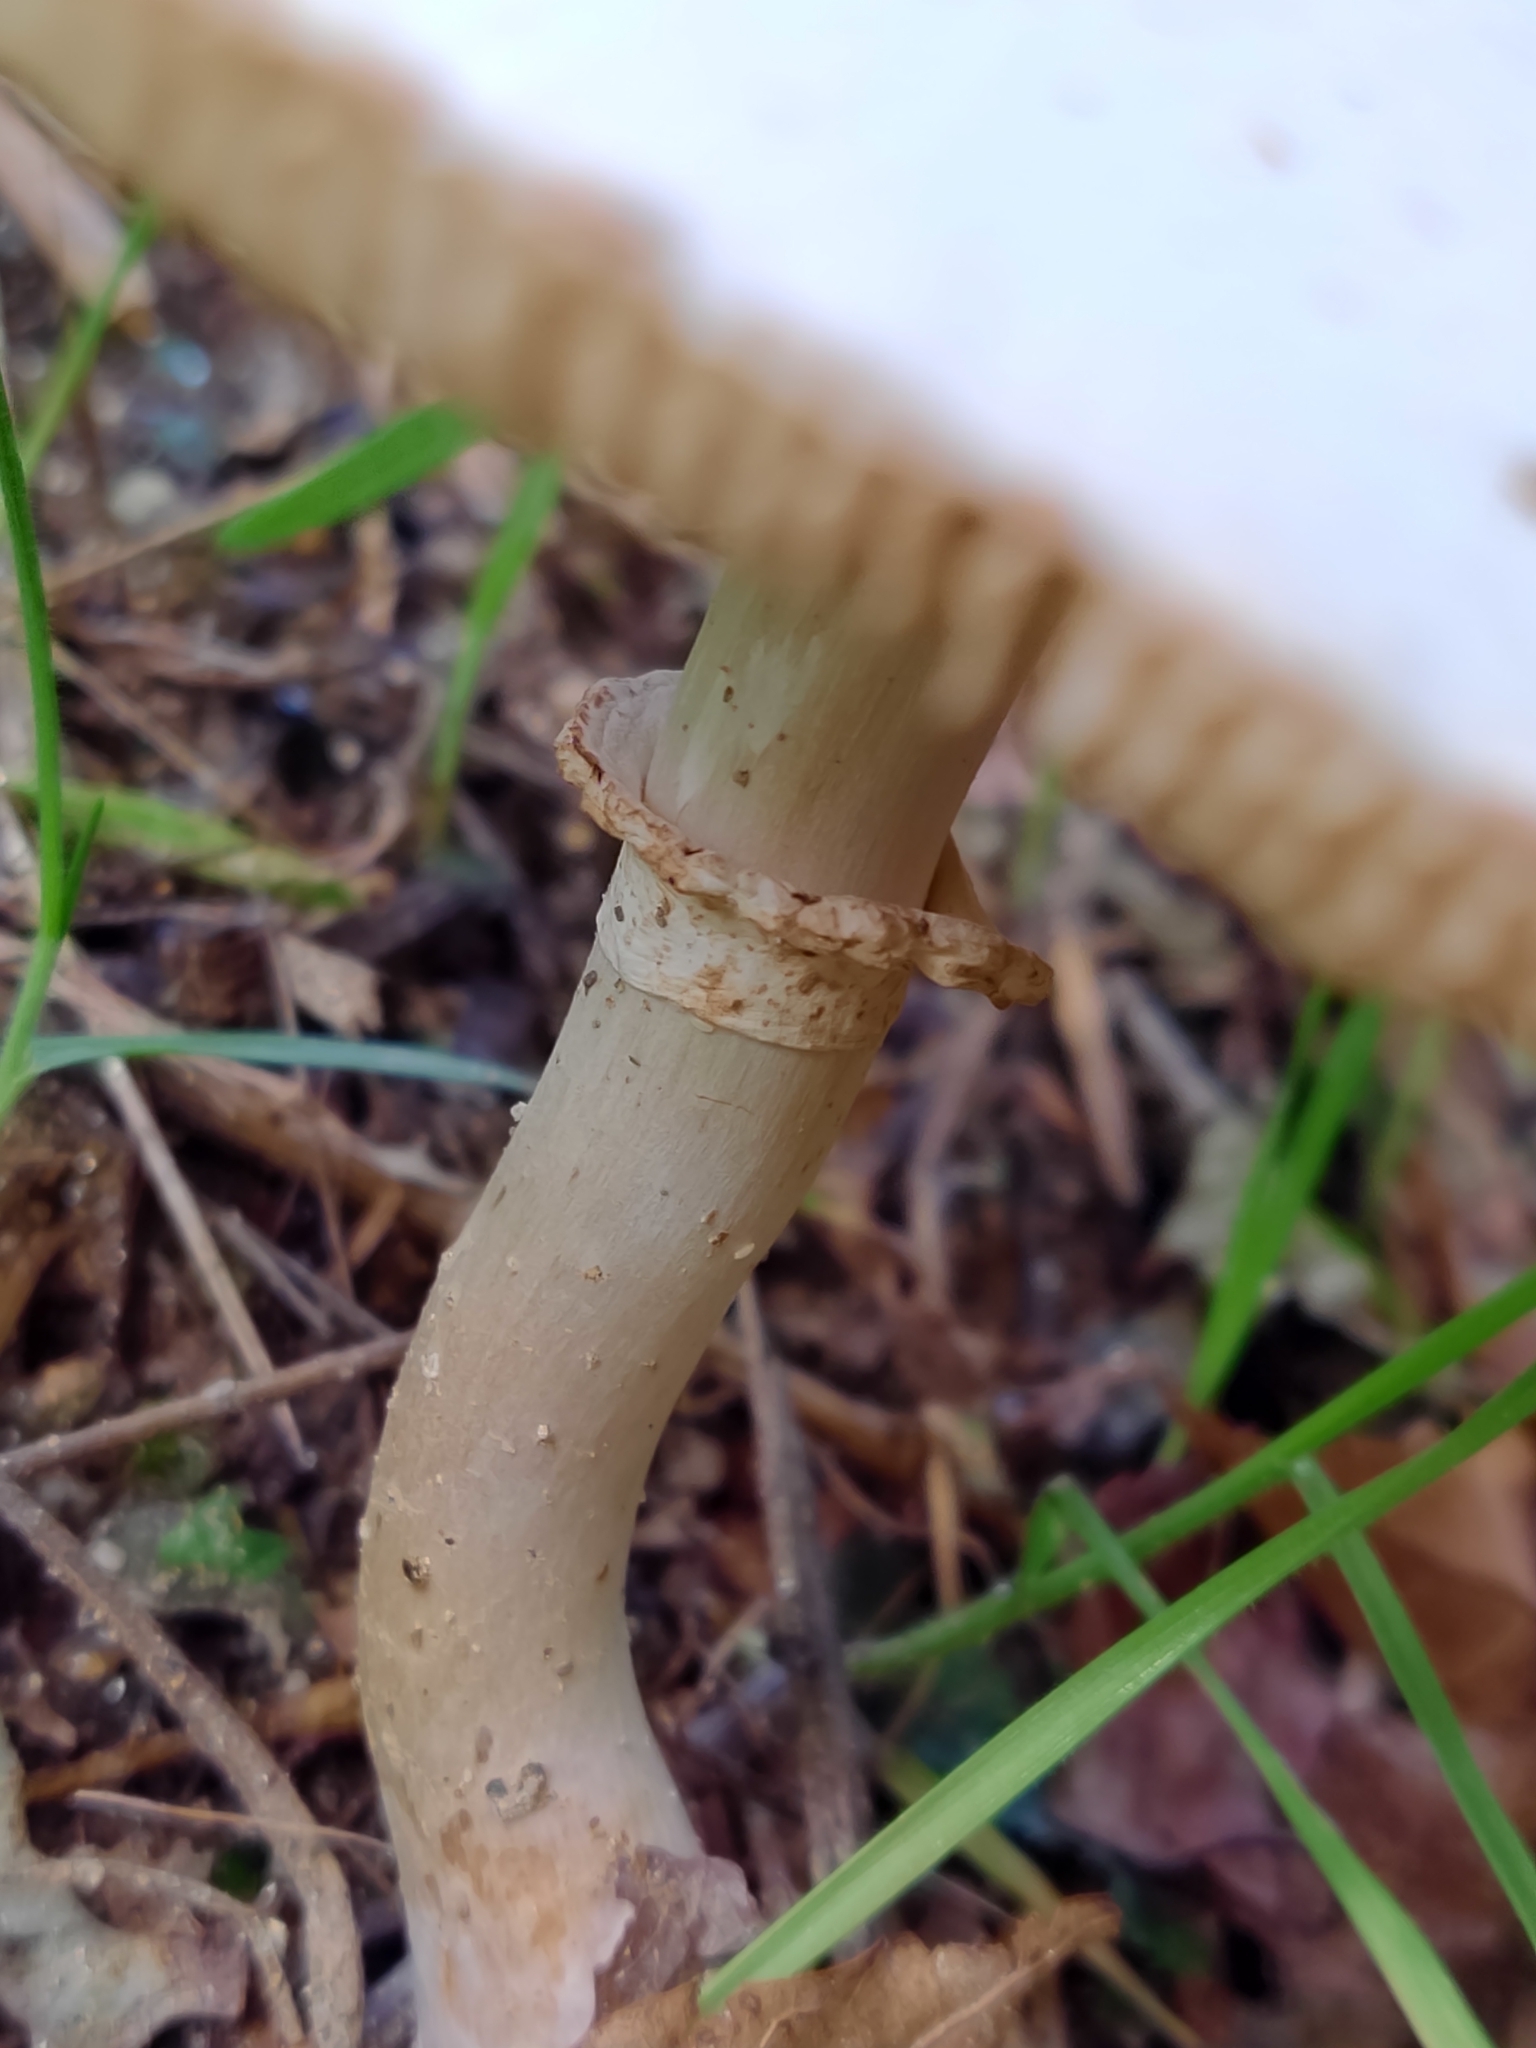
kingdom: Fungi
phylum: Basidiomycota
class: Agaricomycetes
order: Agaricales
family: Agaricaceae
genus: Leucoagaricus
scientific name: Leucoagaricus leucothites
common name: White dapperling
